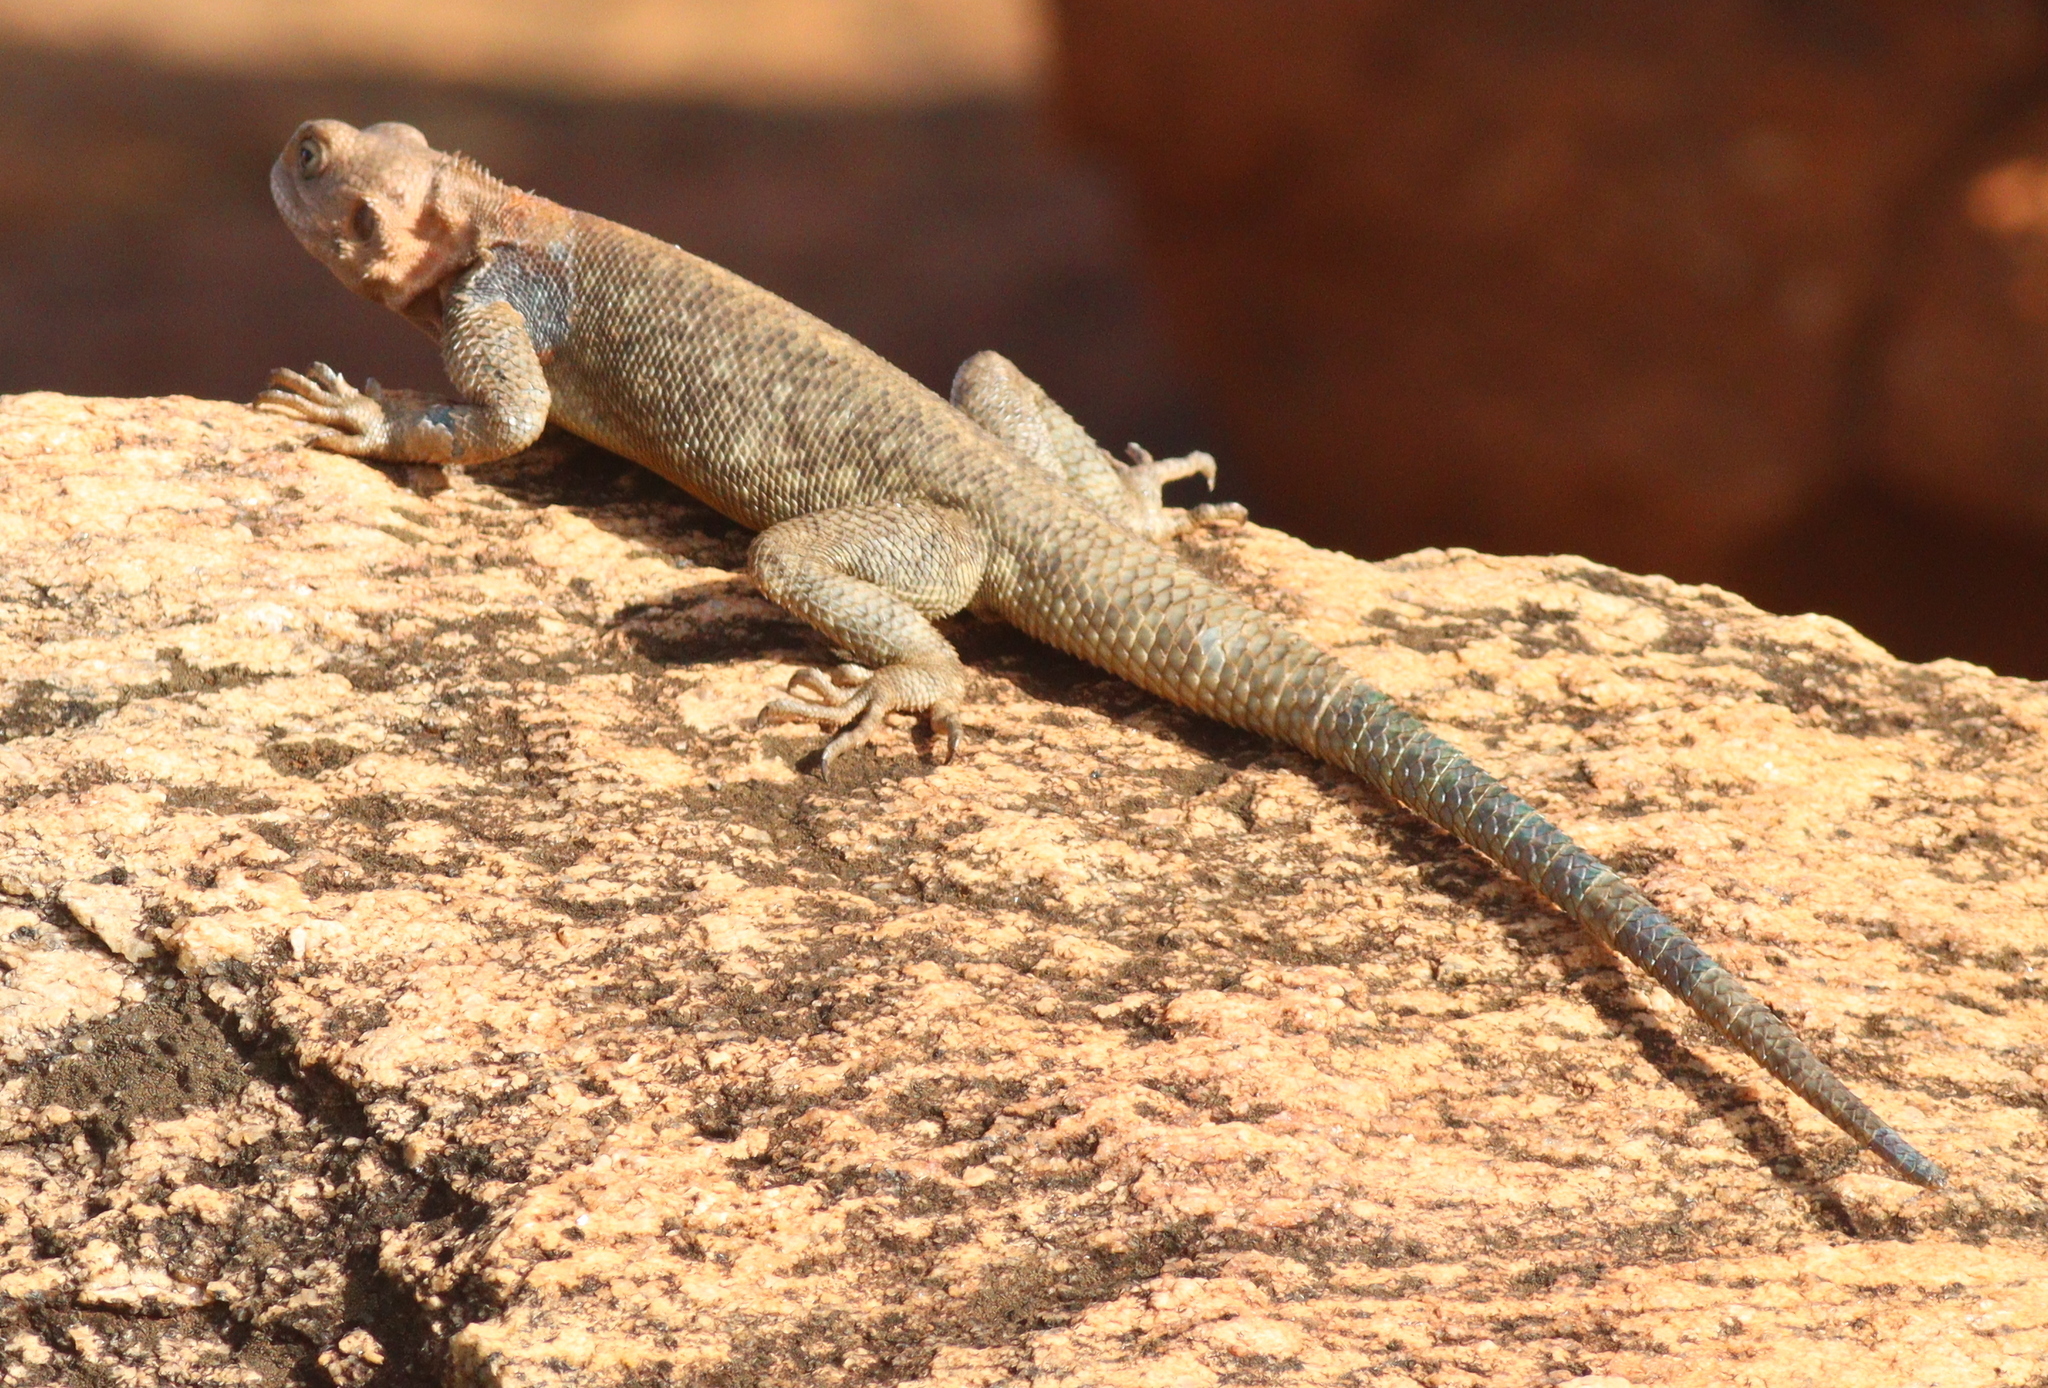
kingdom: Animalia
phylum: Chordata
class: Squamata
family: Agamidae
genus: Agama
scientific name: Agama lionotus
